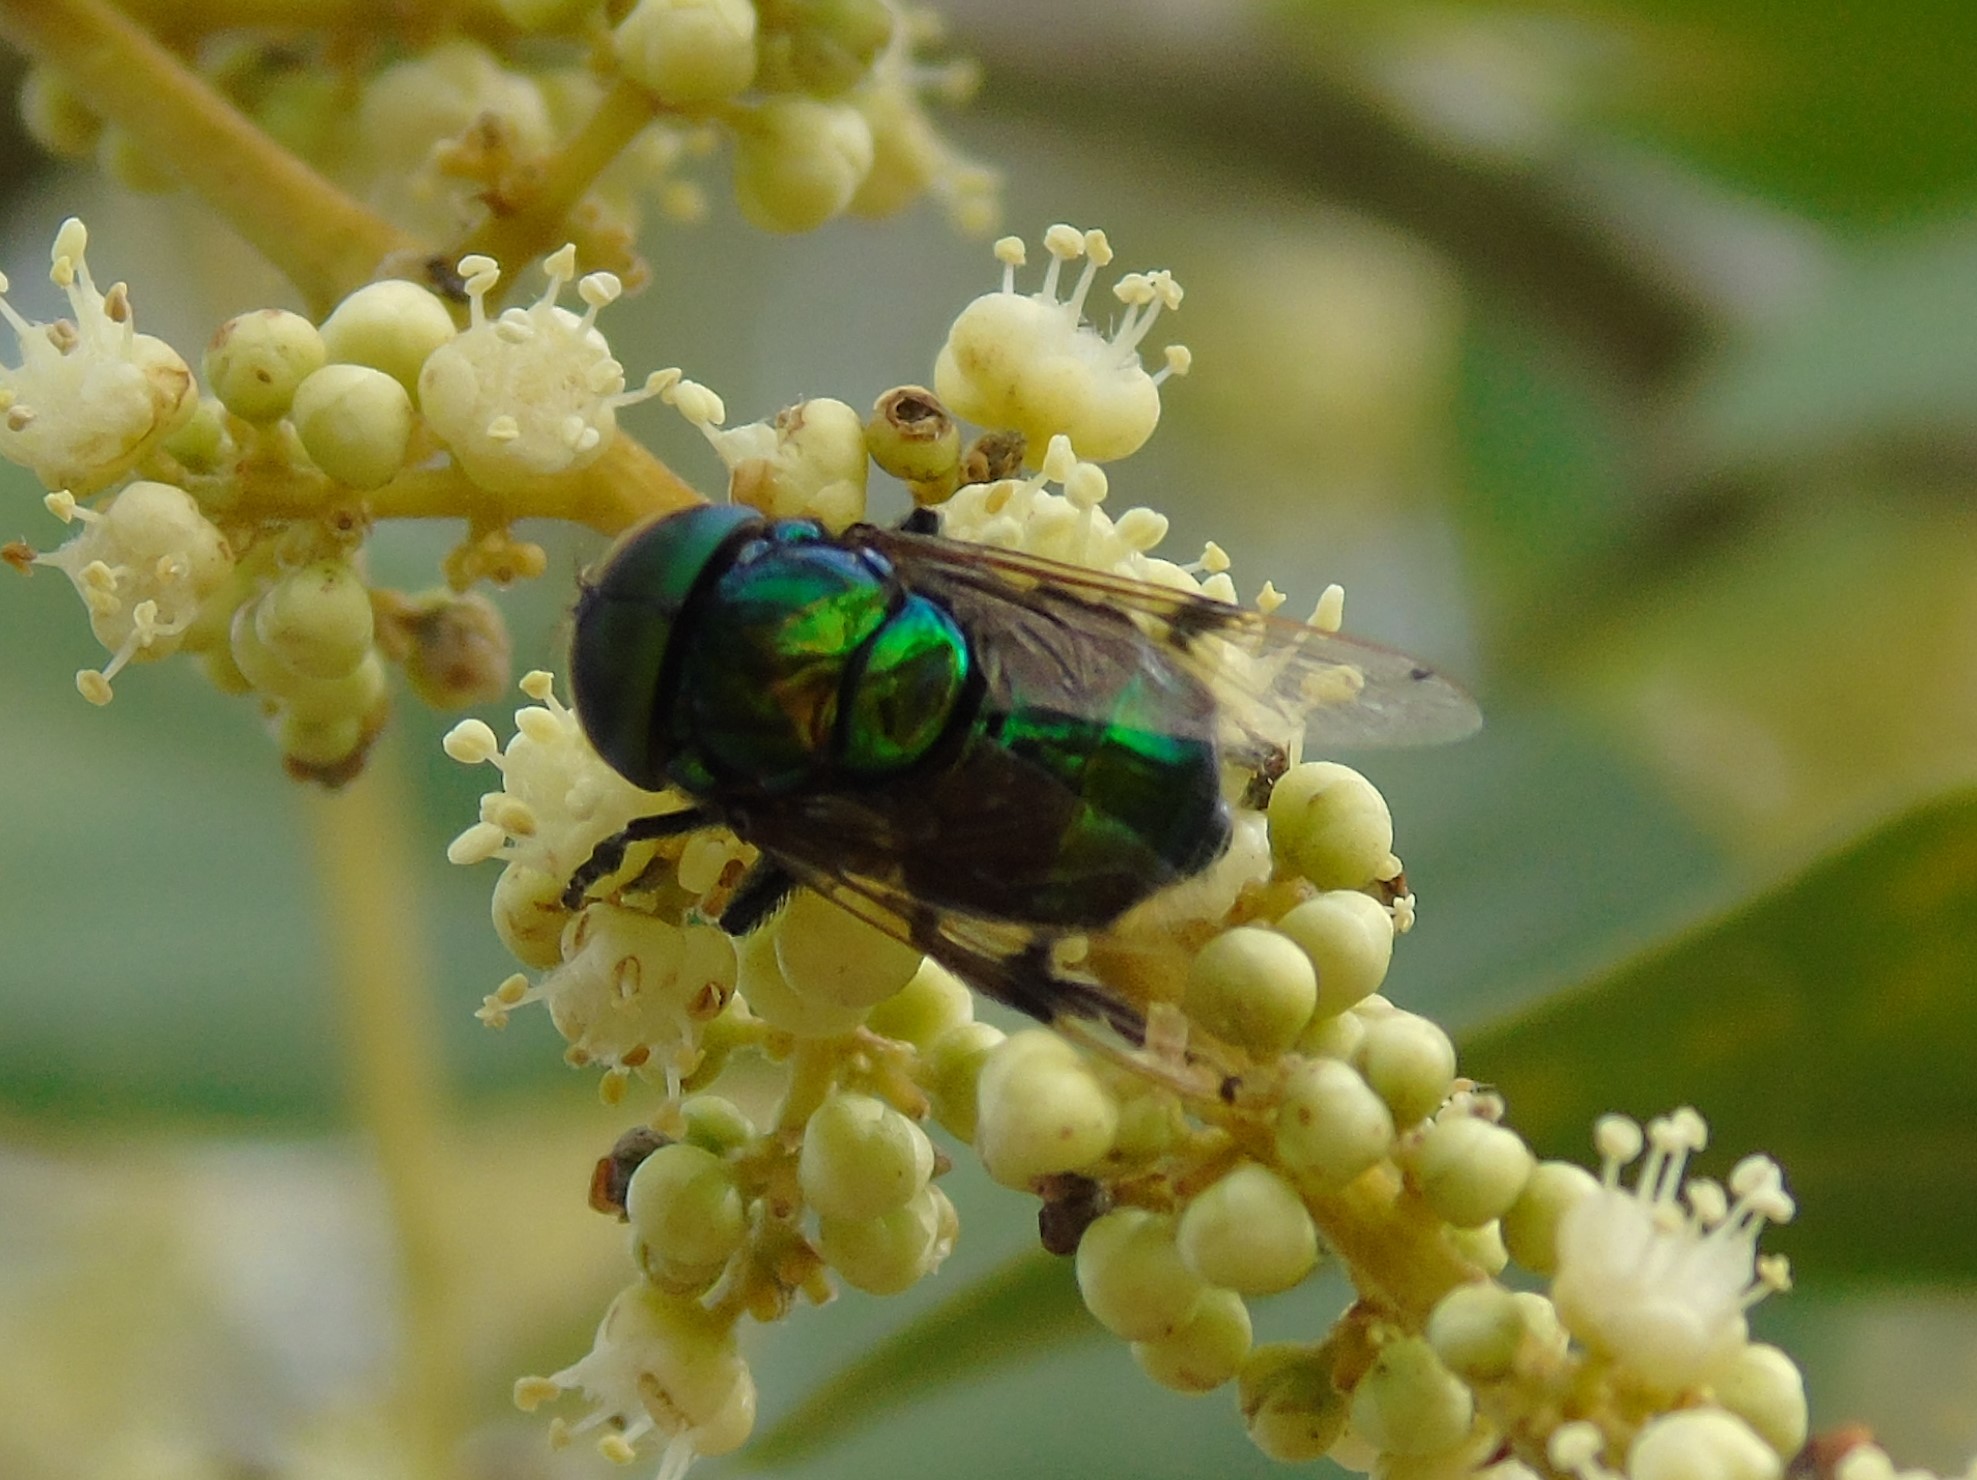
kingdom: Animalia
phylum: Arthropoda
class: Insecta
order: Diptera
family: Syrphidae
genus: Ornidia
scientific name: Ornidia obesa
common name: Syrphid fly
